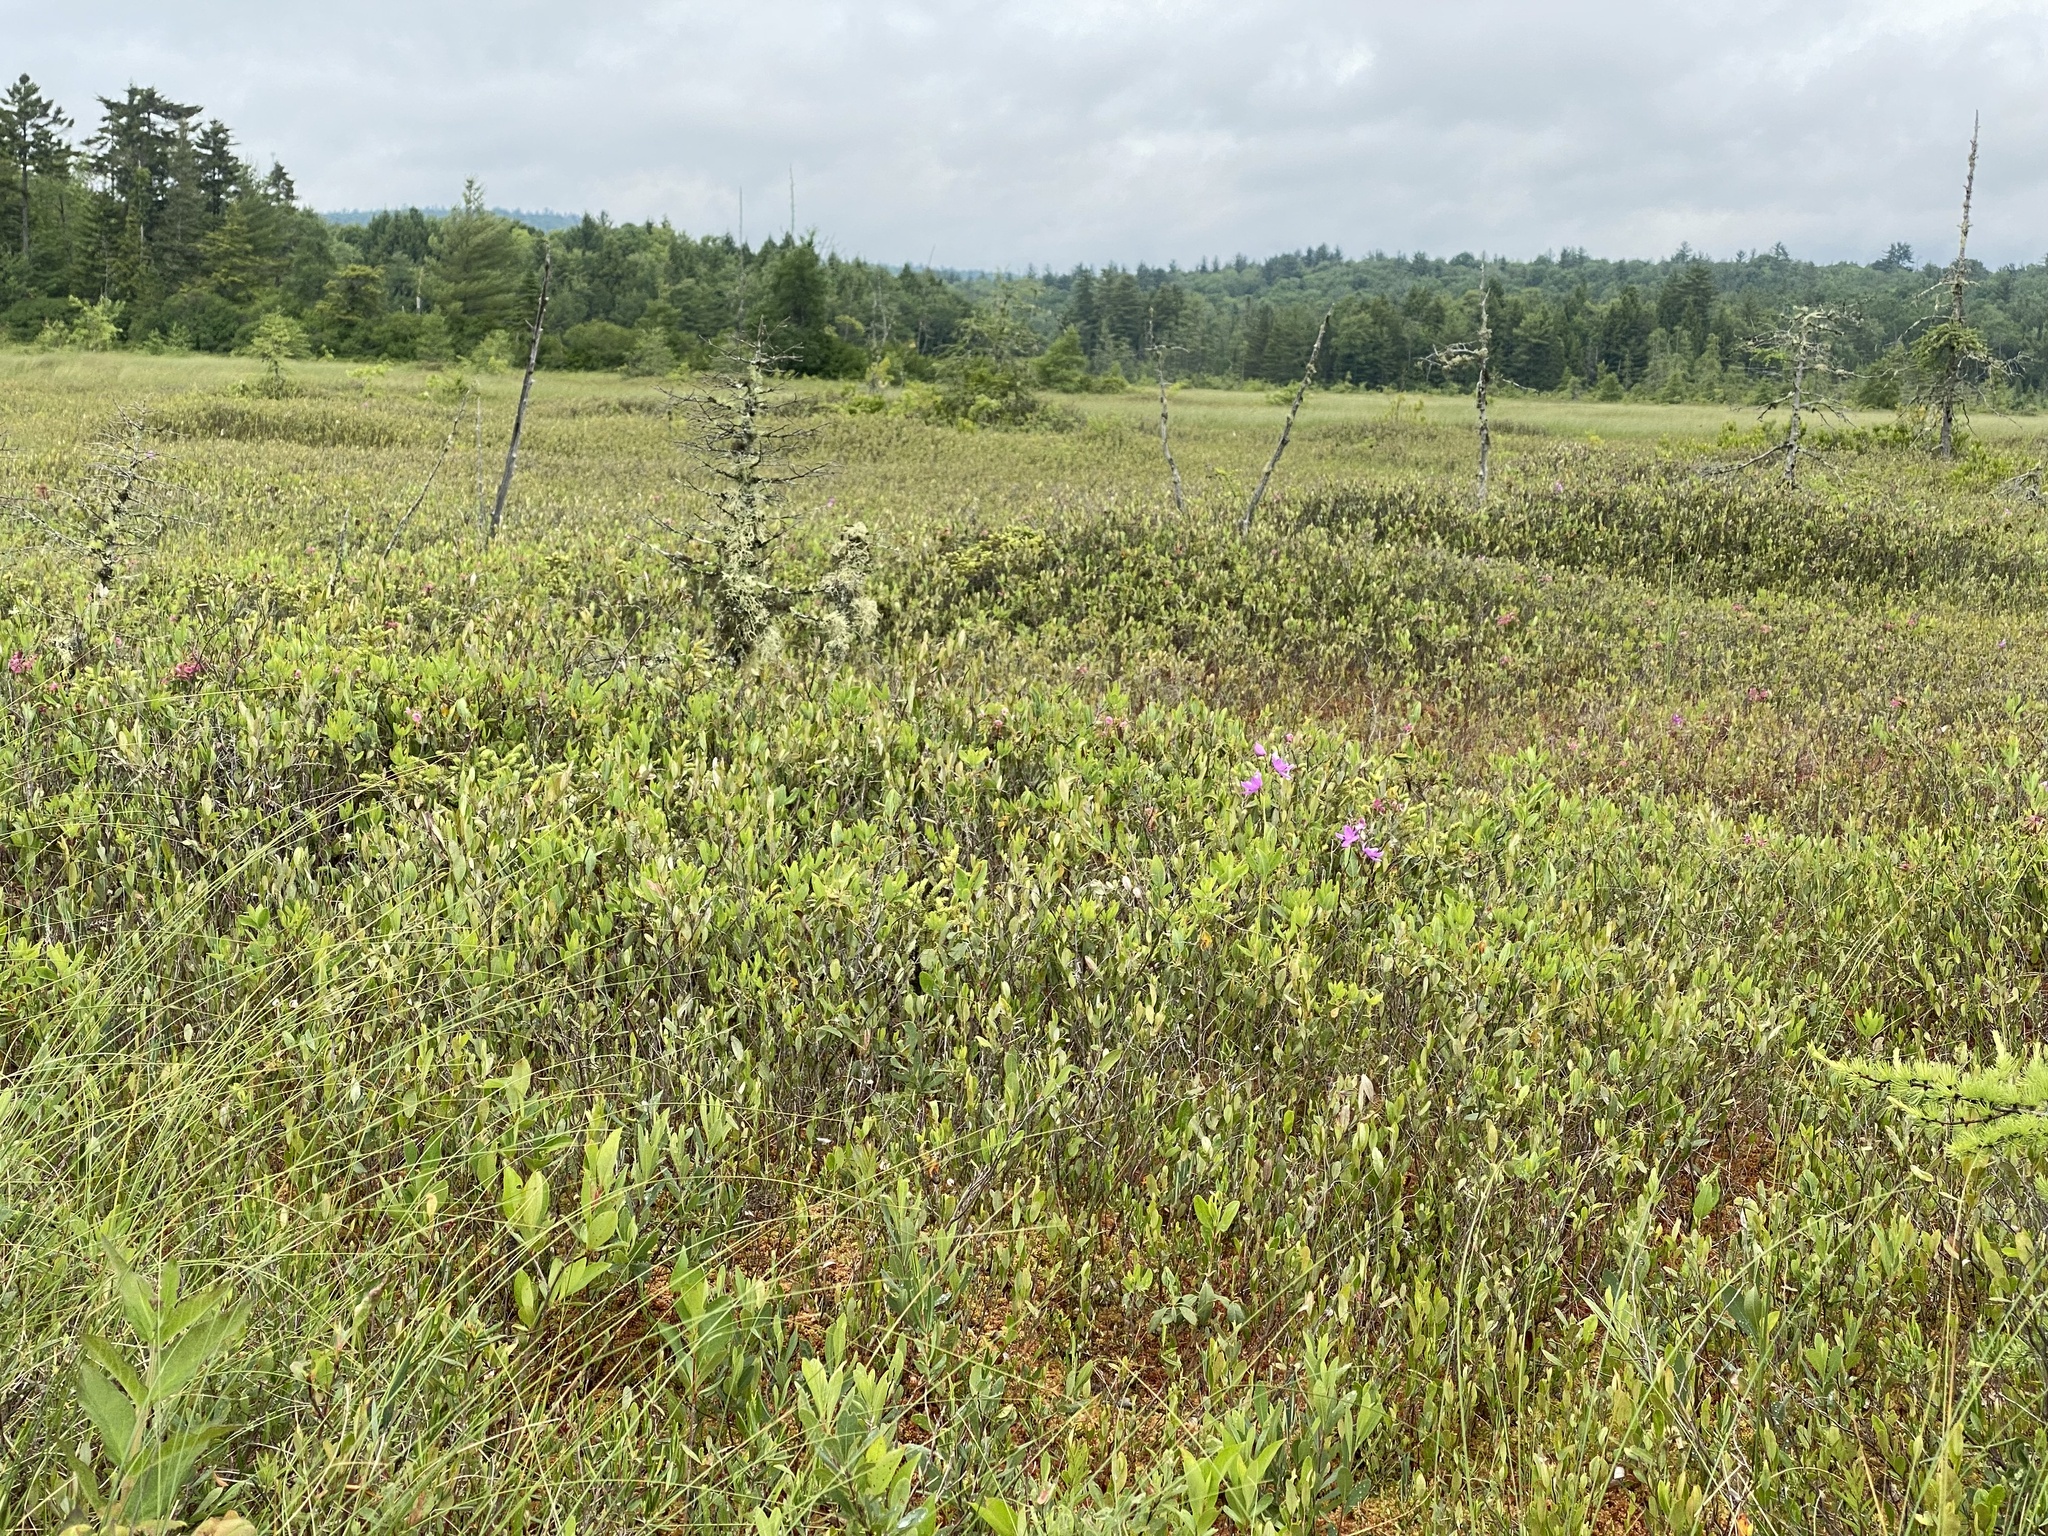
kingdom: Plantae
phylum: Tracheophyta
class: Liliopsida
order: Asparagales
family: Orchidaceae
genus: Pogonia
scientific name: Pogonia ophioglossoides
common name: Rose pogonia
